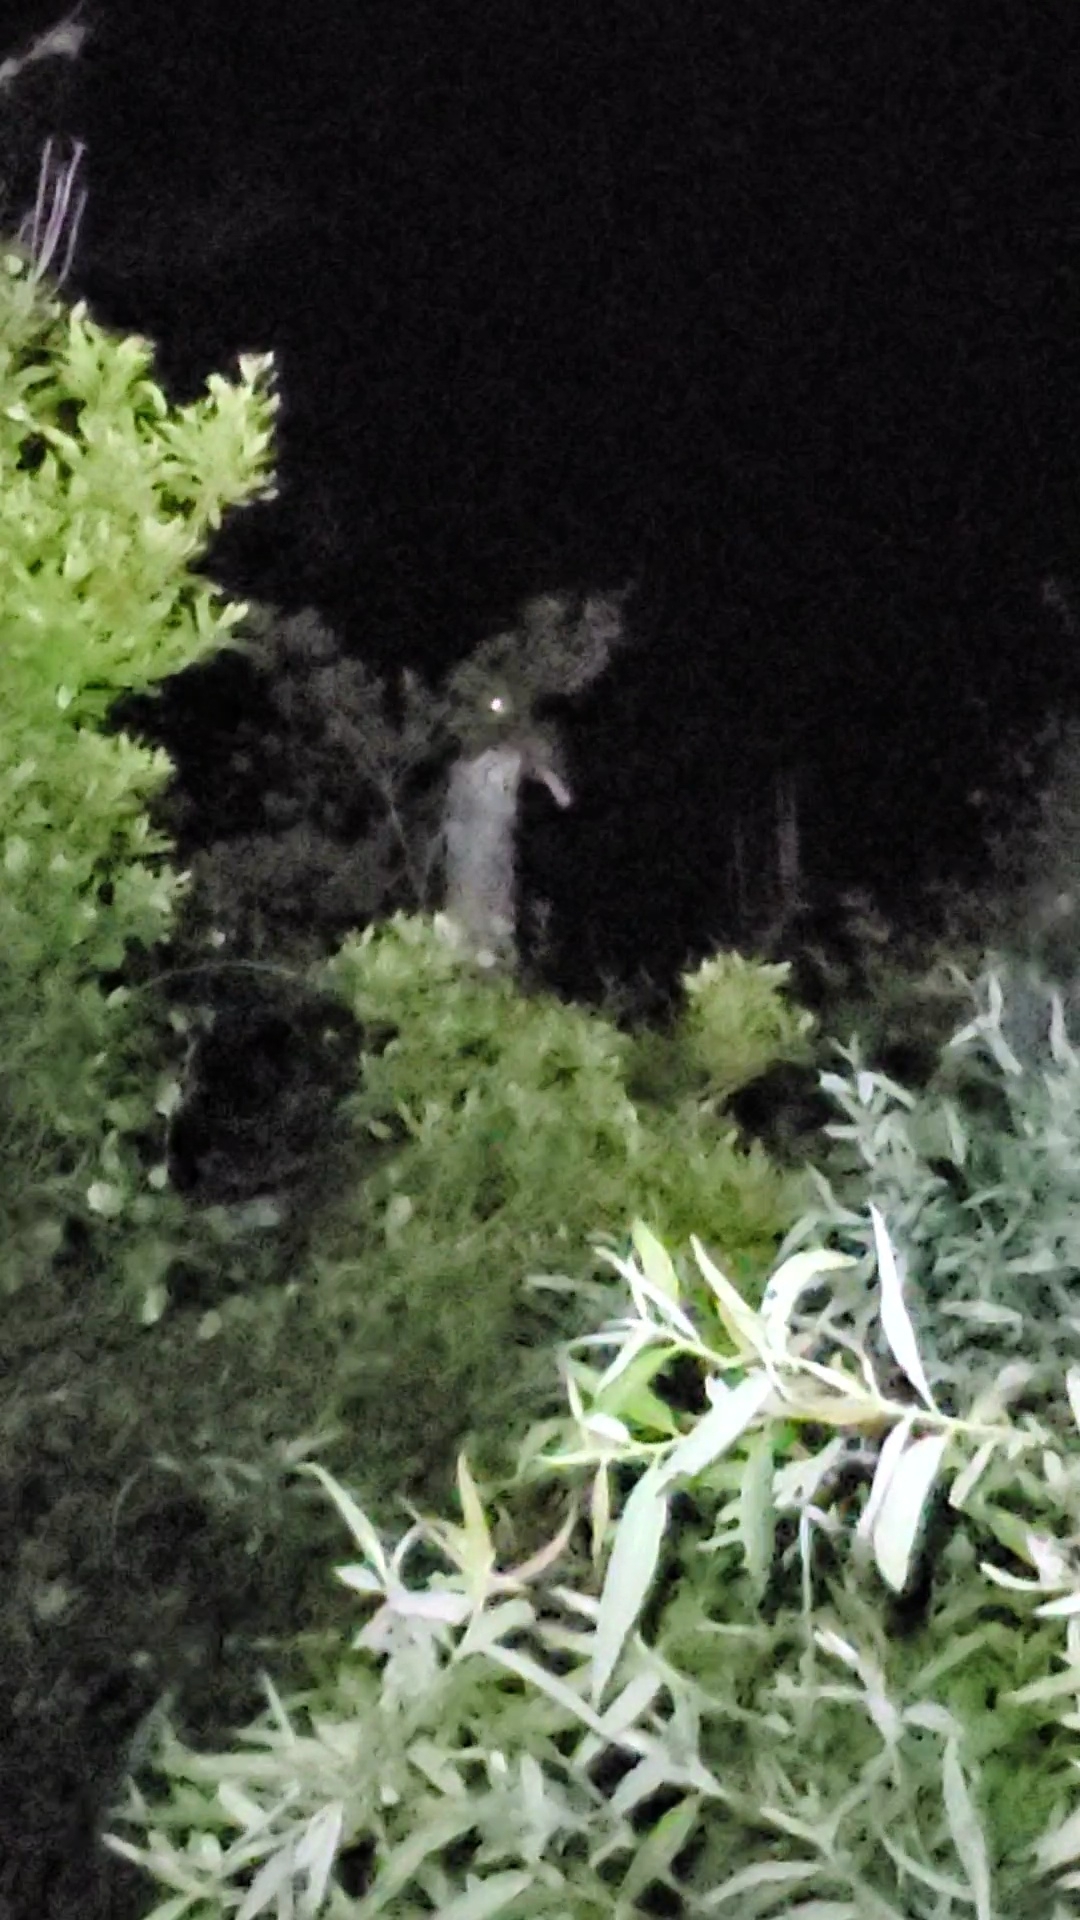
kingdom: Animalia
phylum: Chordata
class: Aves
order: Caprimulgiformes
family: Caprimulgidae
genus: Antrostomus
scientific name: Antrostomus carolinensis
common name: Chuck-will's-widow
